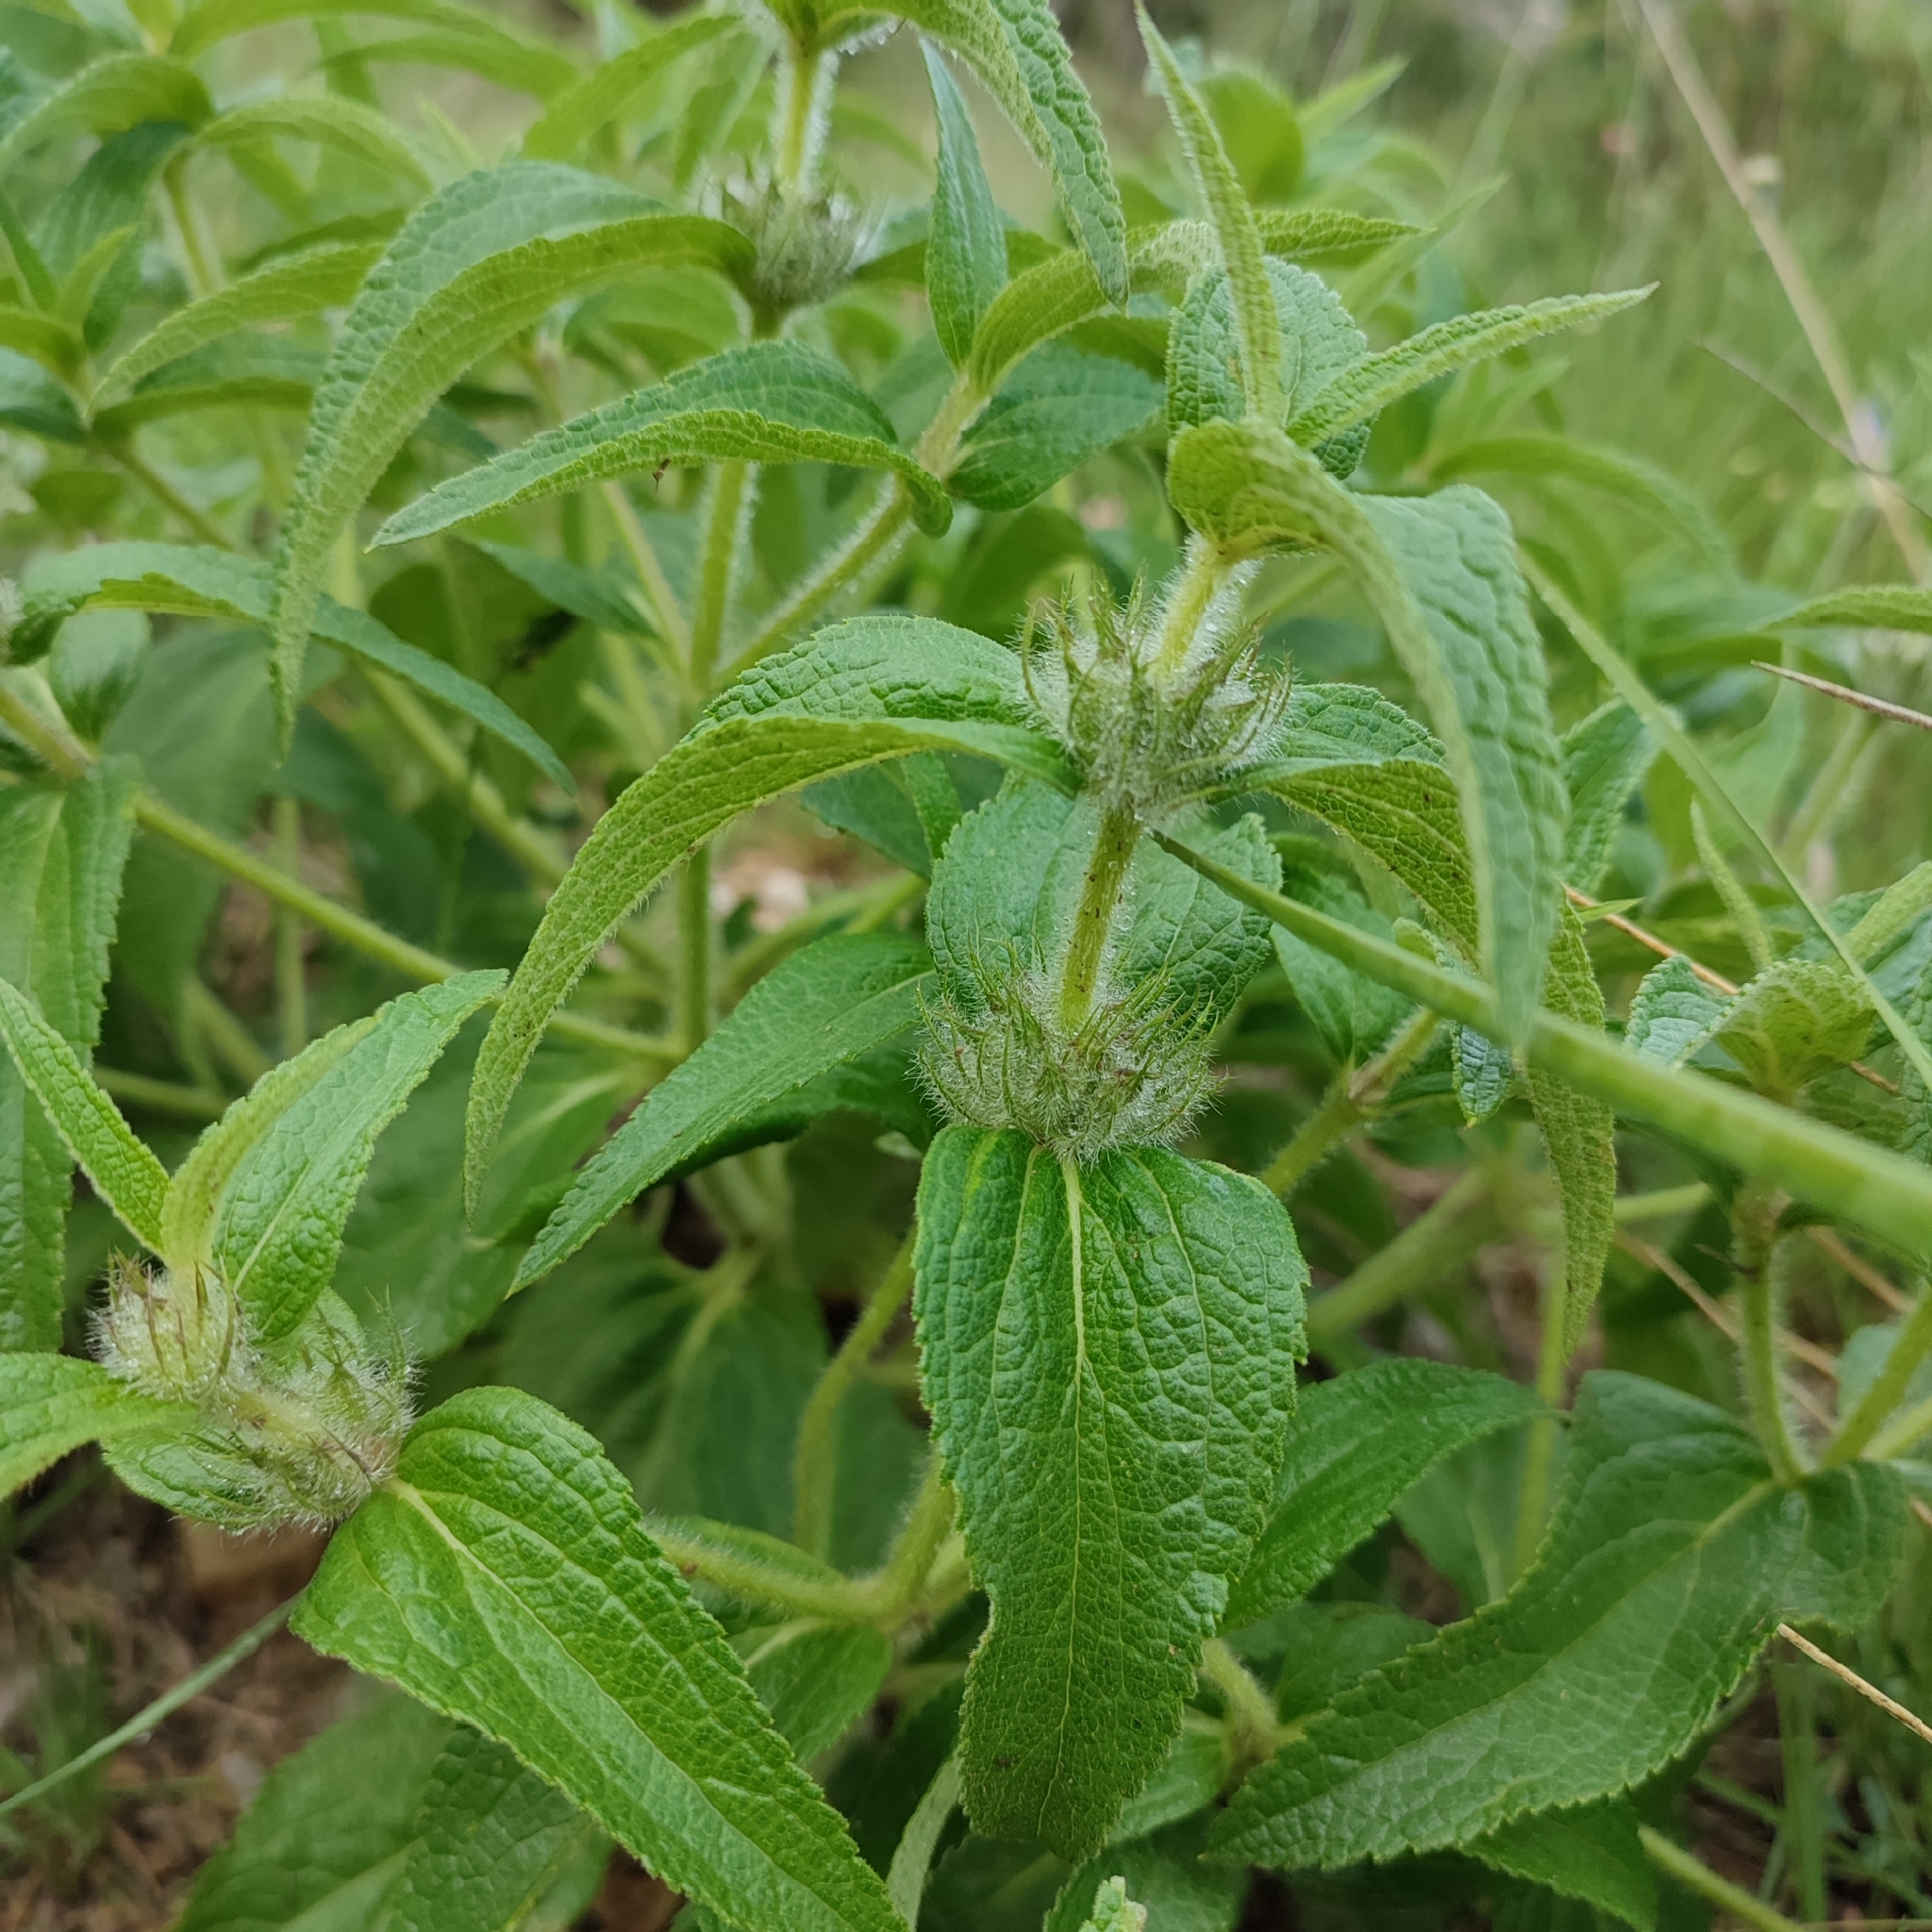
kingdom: Plantae
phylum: Tracheophyta
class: Magnoliopsida
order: Lamiales
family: Lamiaceae
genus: Phlomis
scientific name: Phlomis herba-venti
